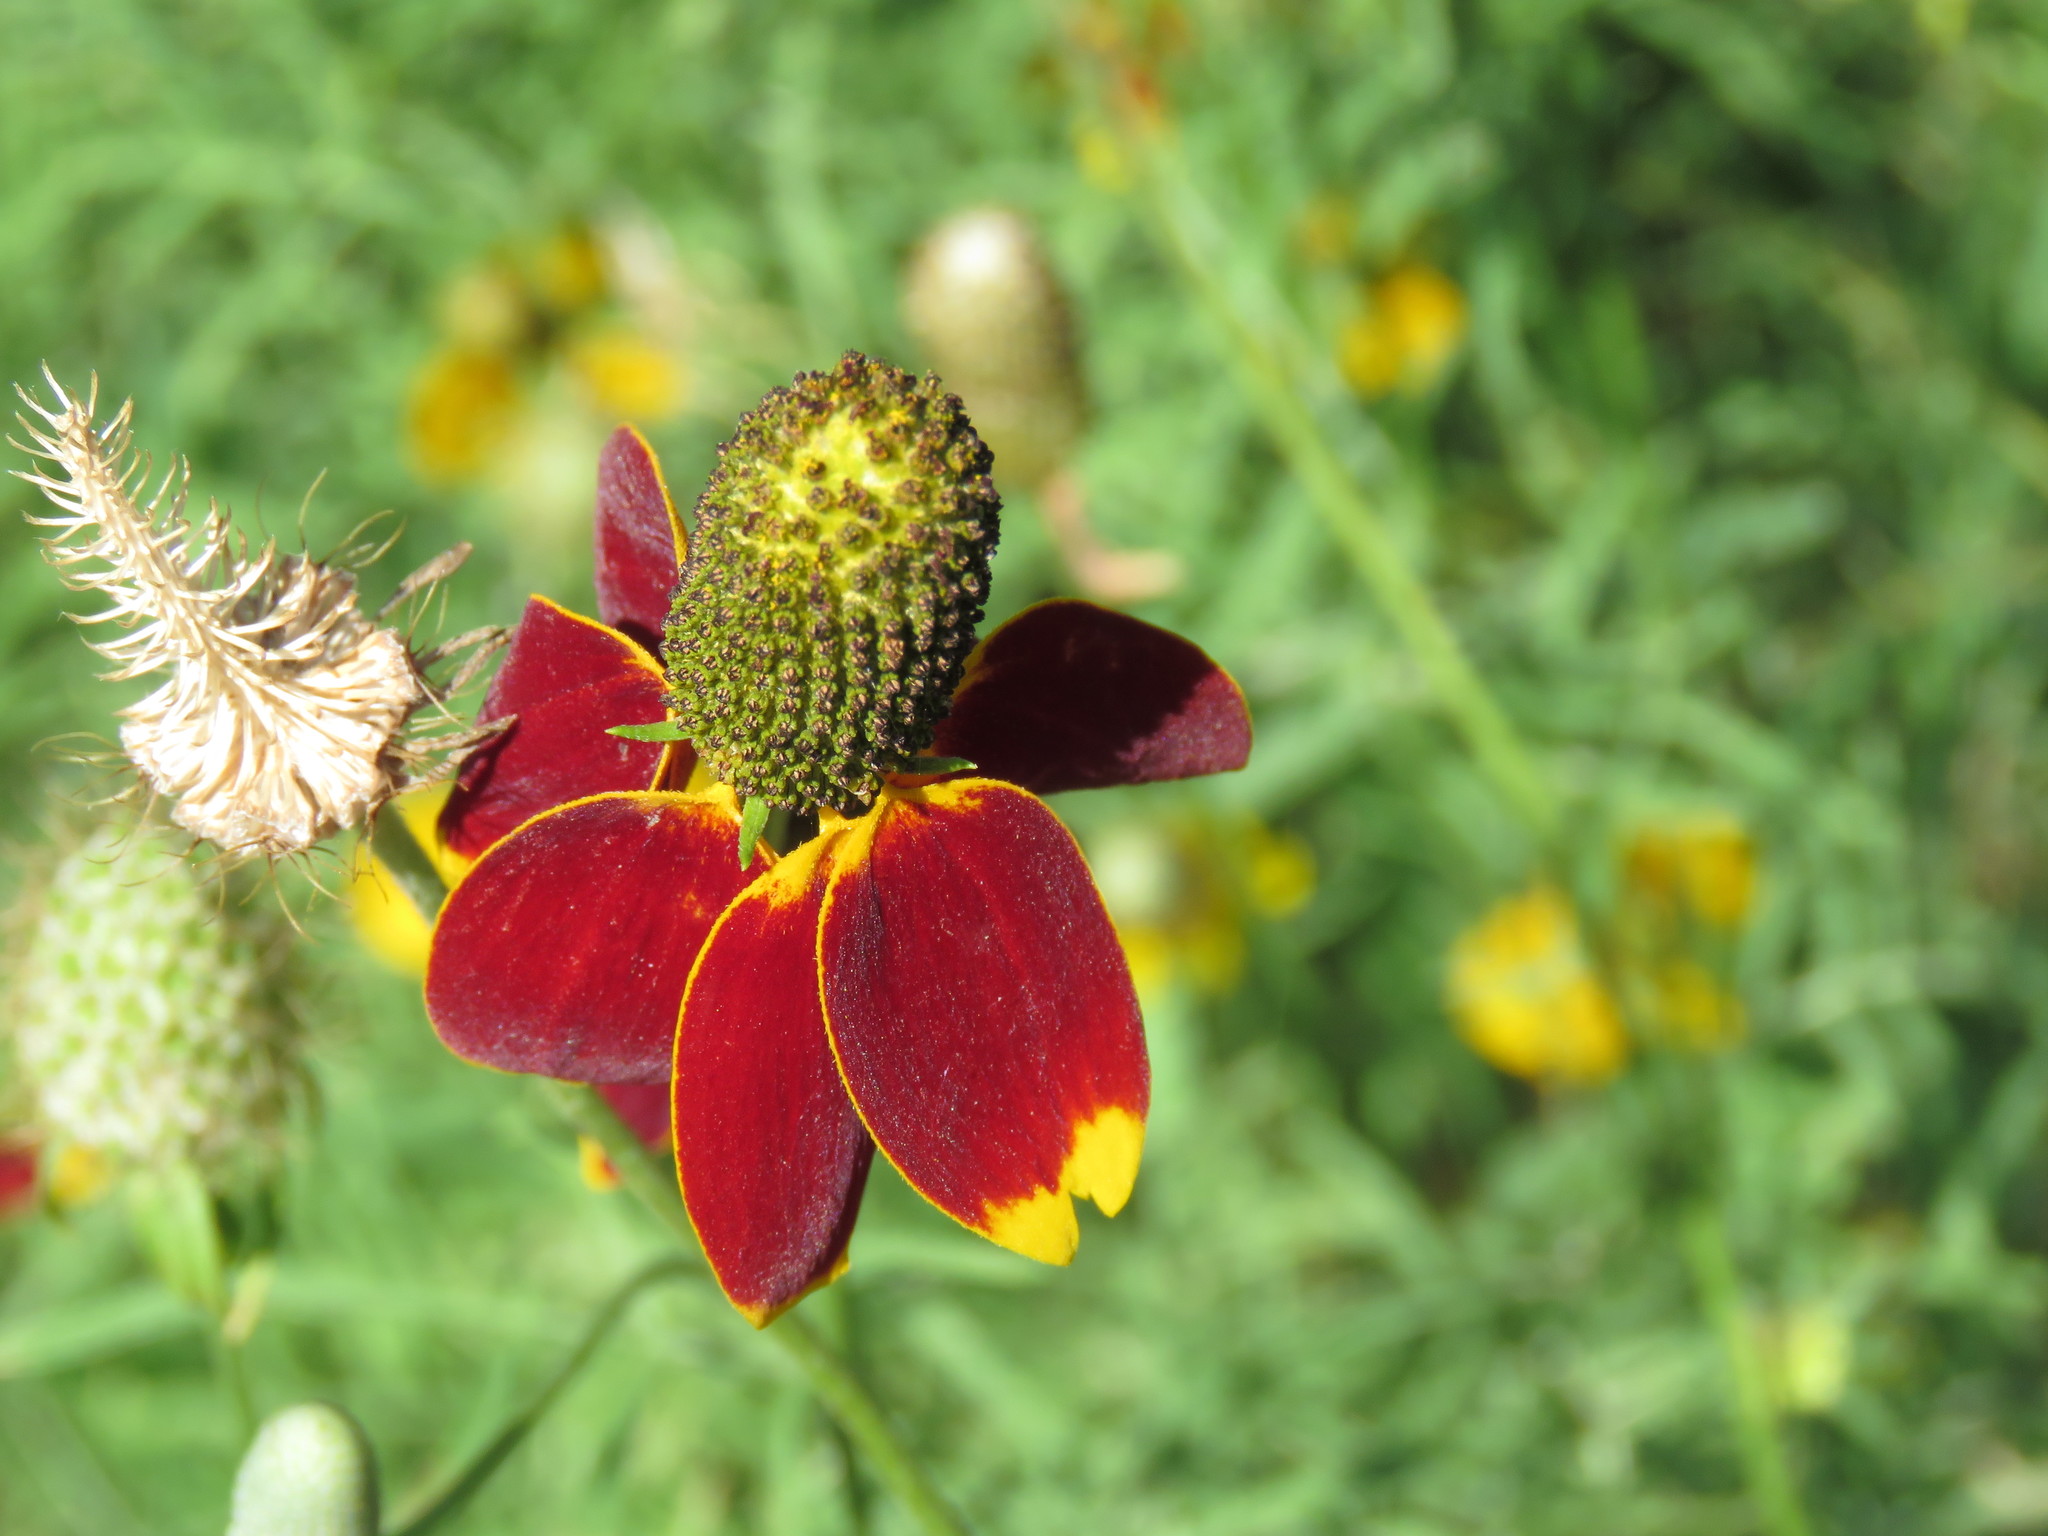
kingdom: Plantae
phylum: Tracheophyta
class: Magnoliopsida
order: Asterales
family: Asteraceae
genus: Ratibida
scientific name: Ratibida columnifera
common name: Prairie coneflower
